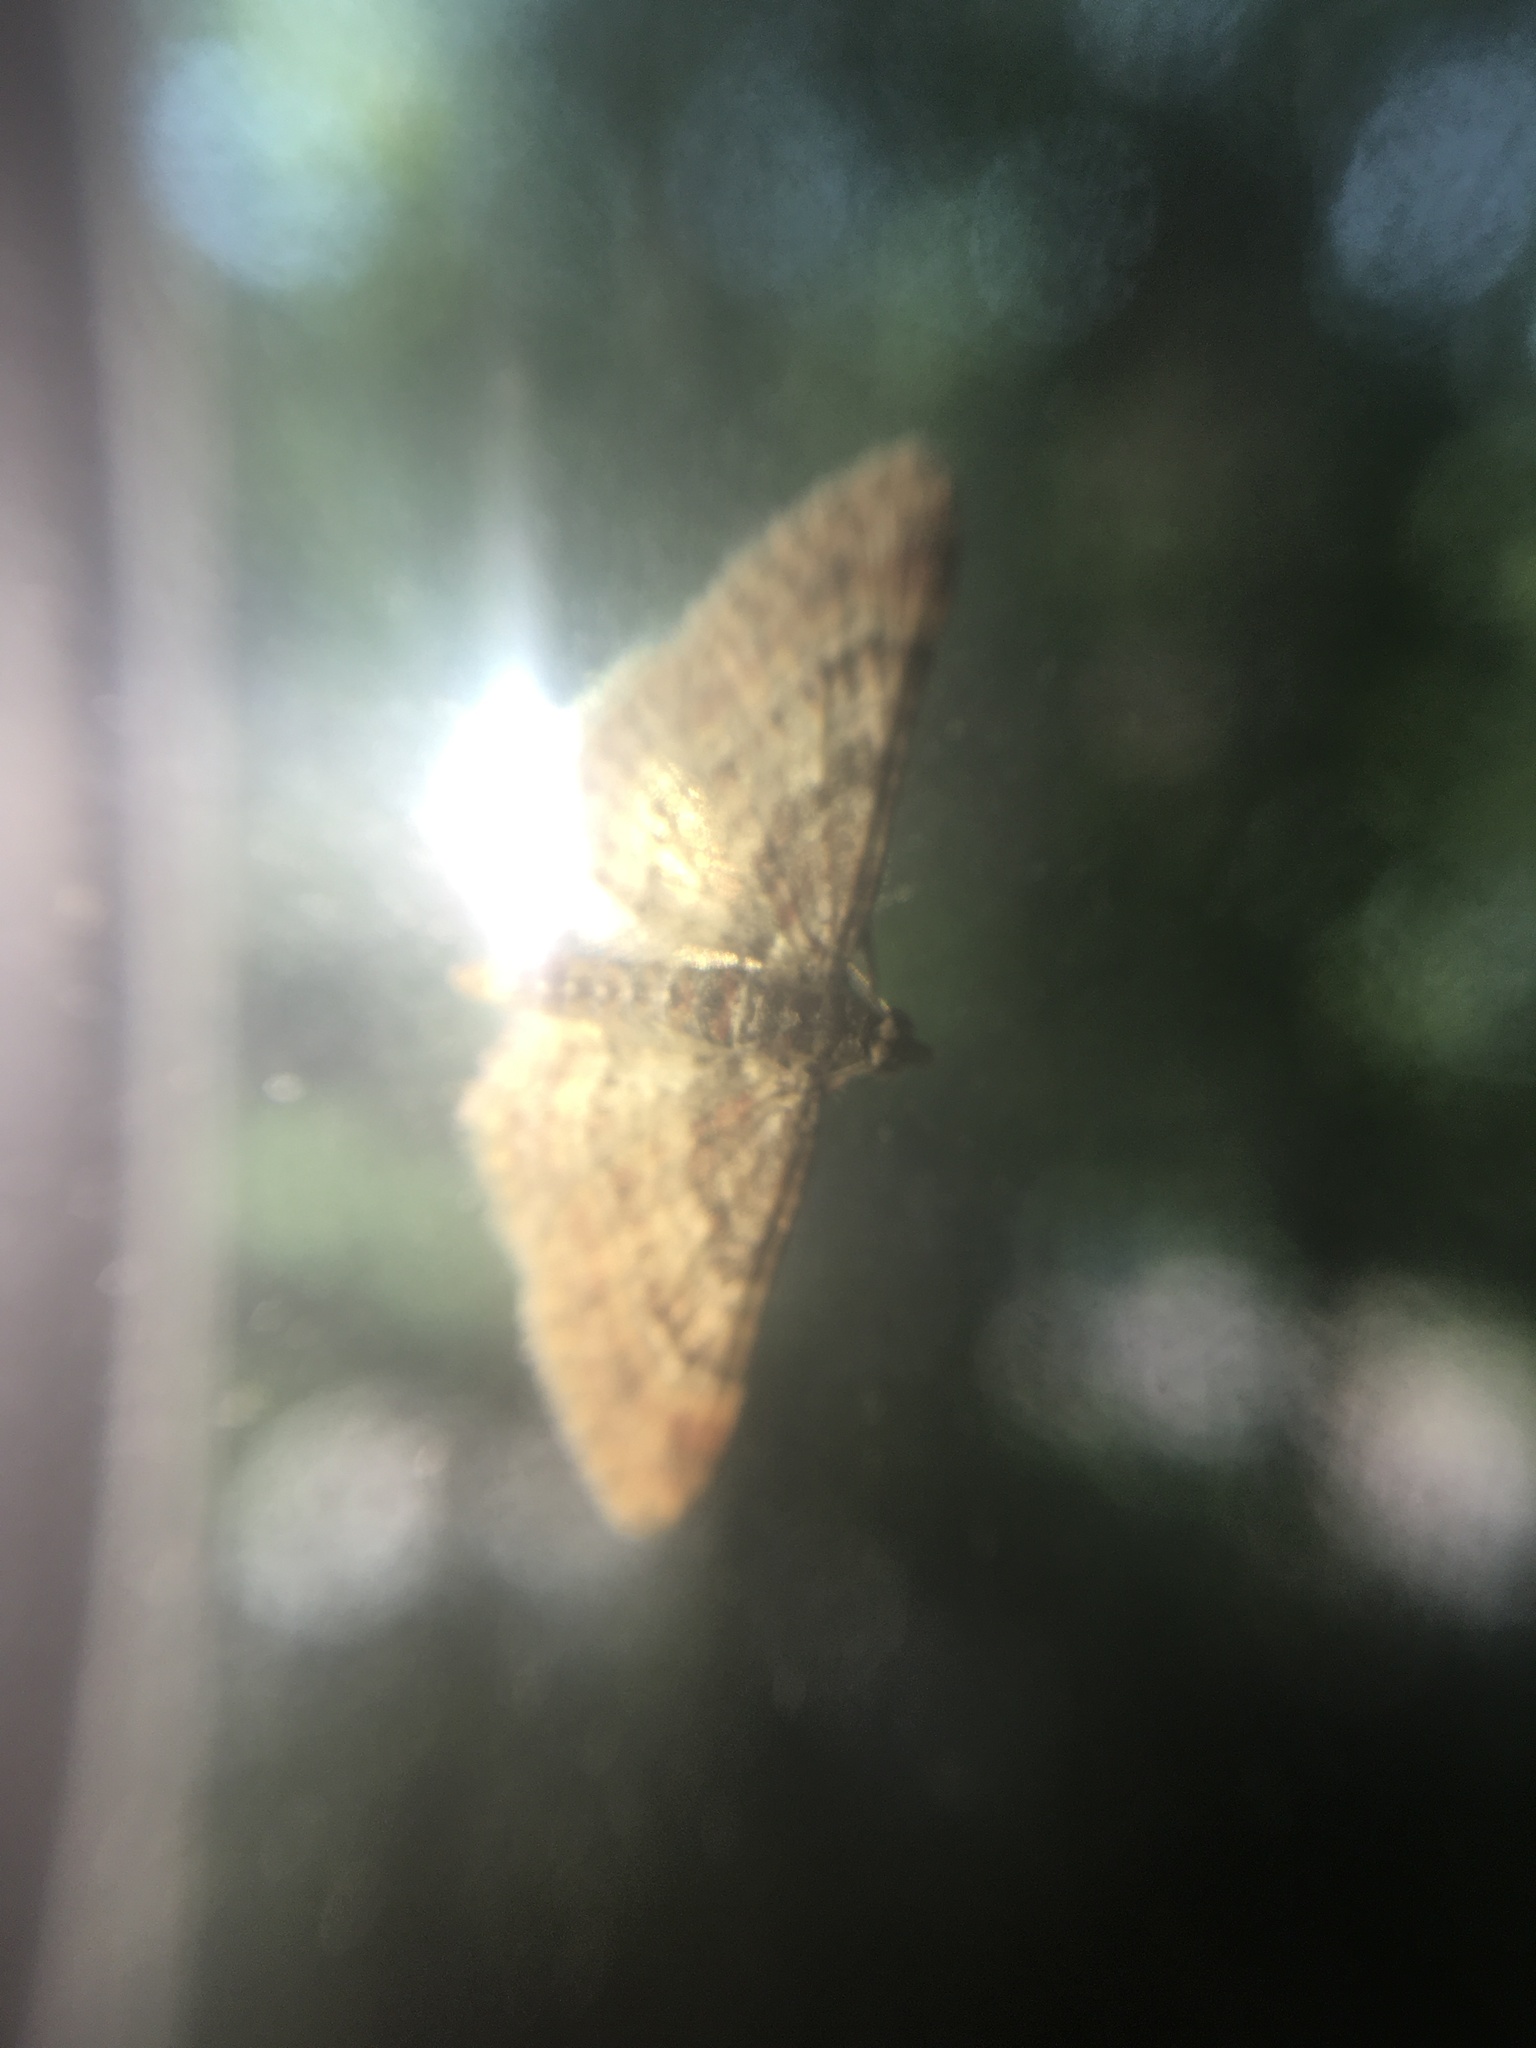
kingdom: Animalia
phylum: Arthropoda
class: Insecta
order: Lepidoptera
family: Geometridae
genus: Gymnoscelis
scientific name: Gymnoscelis rufifasciata
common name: Double-striped pug
